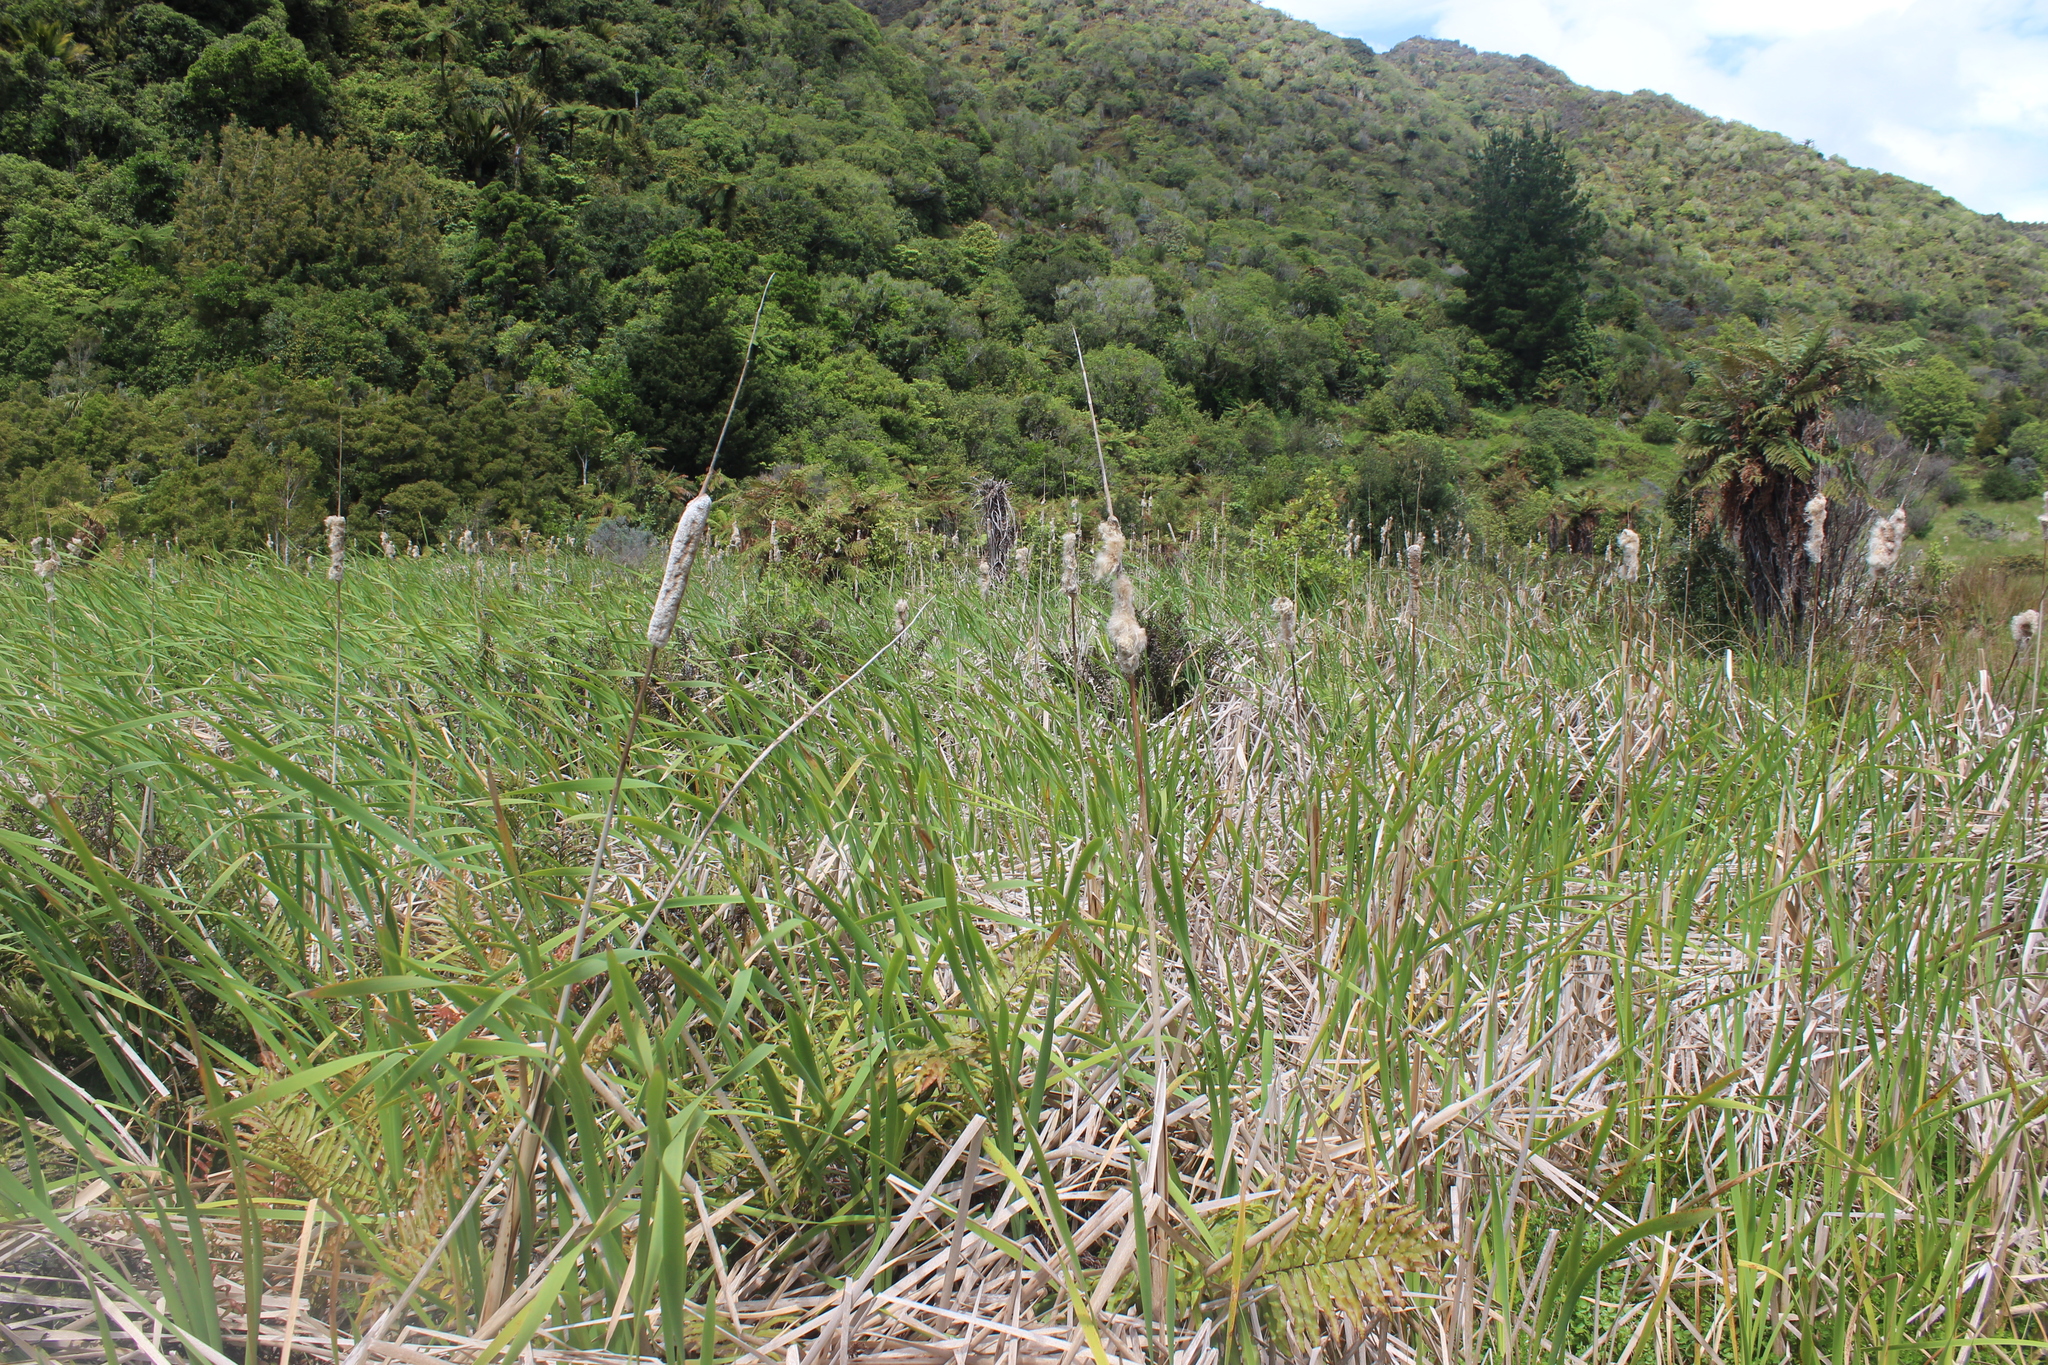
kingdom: Plantae
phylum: Tracheophyta
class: Liliopsida
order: Poales
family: Typhaceae
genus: Typha
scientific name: Typha orientalis
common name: Bullrush
